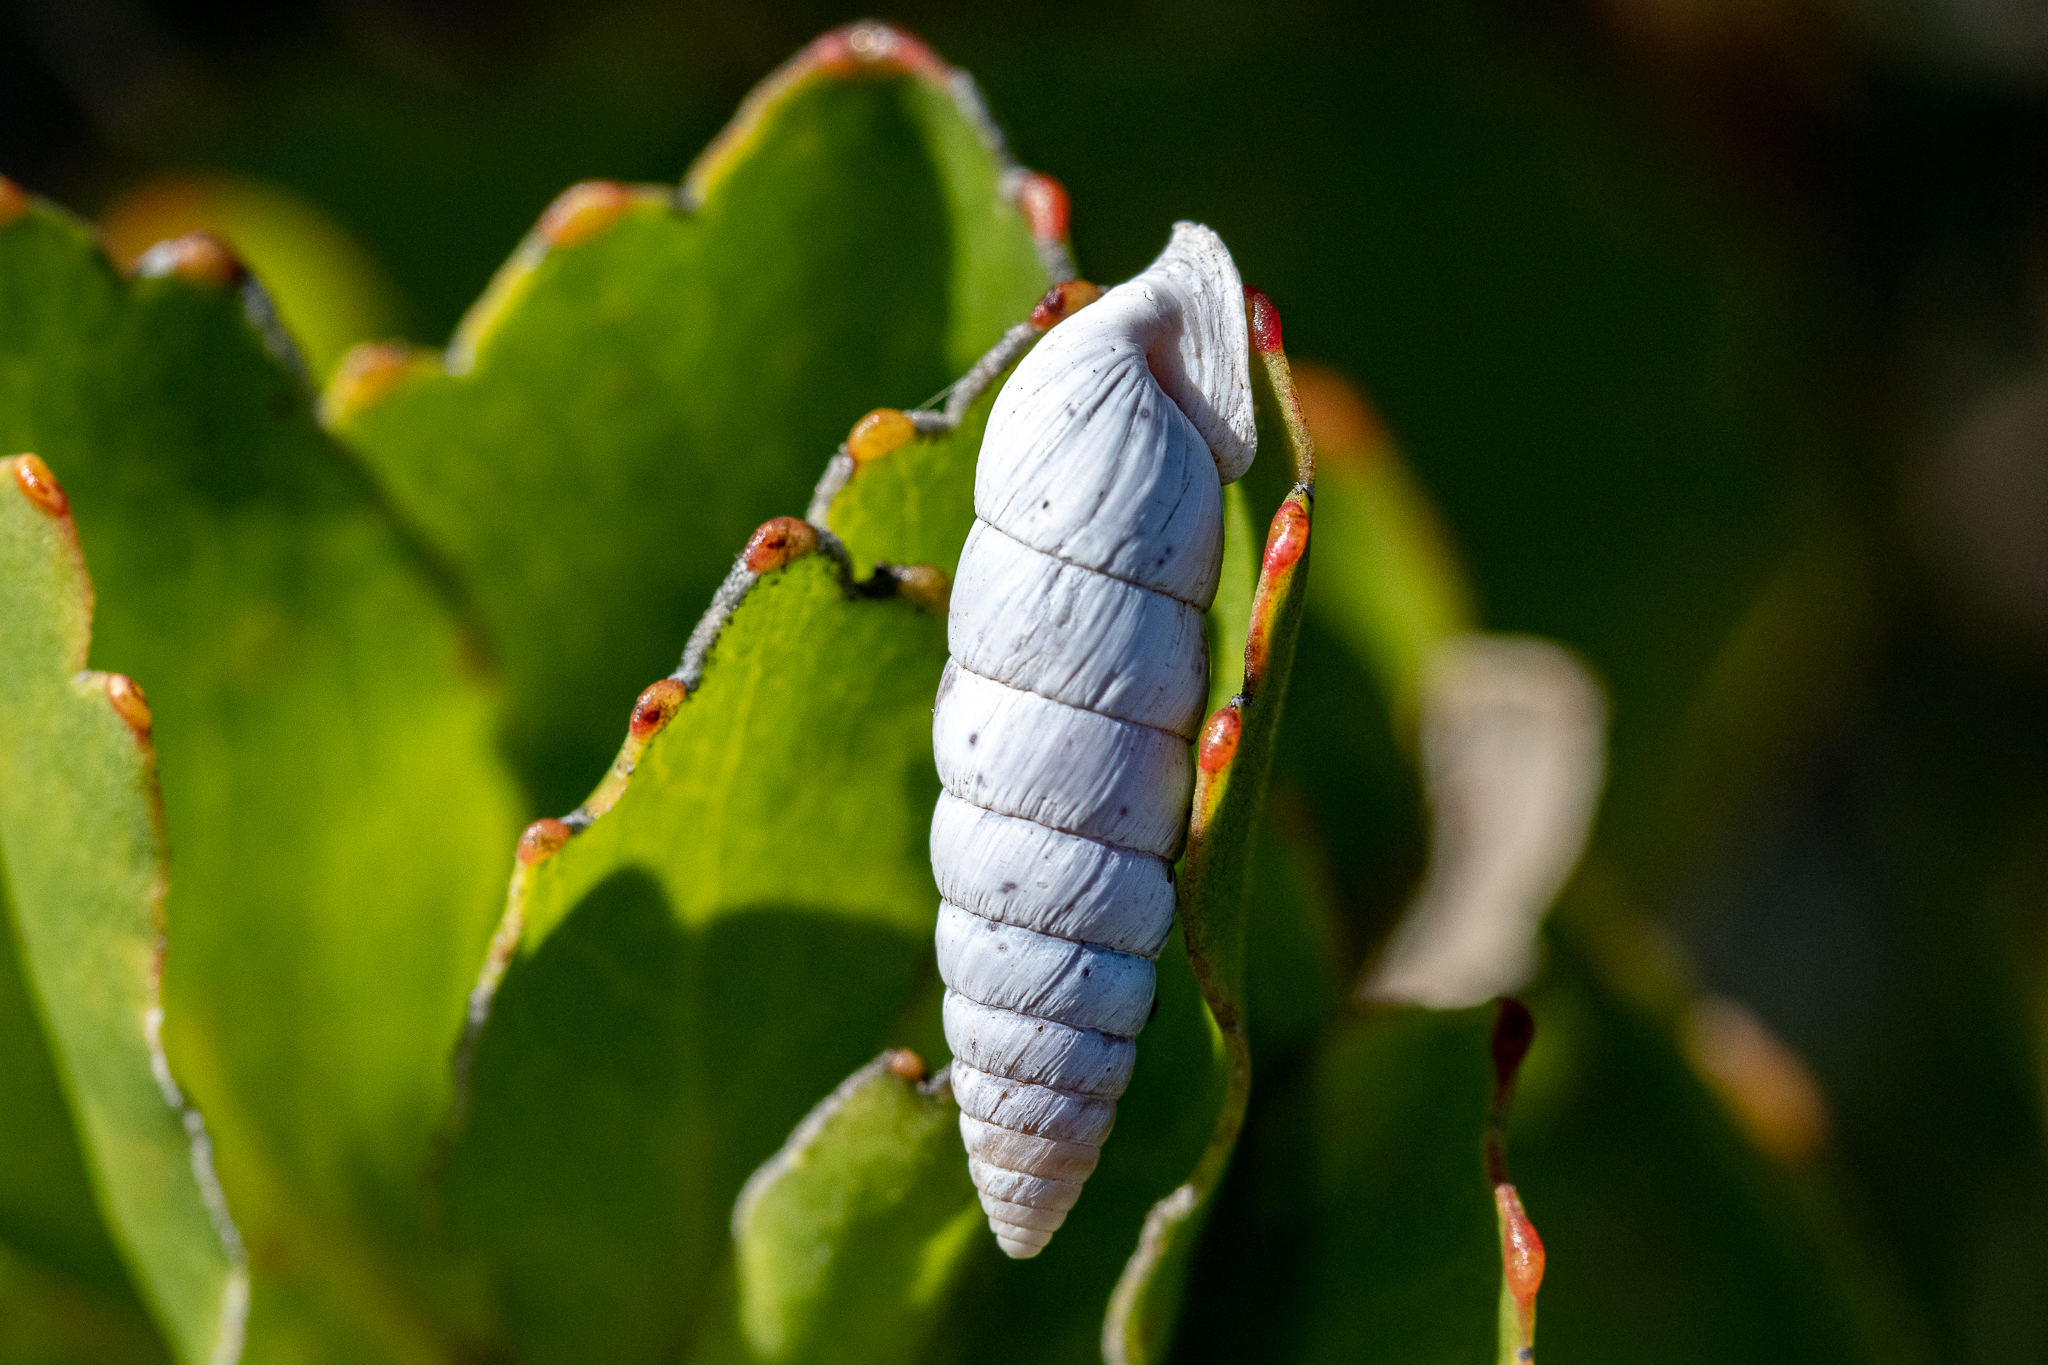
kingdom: Animalia
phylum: Mollusca
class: Gastropoda
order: Stylommatophora
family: Fauxulidae
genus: Fauxulus
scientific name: Fauxulus capensis
